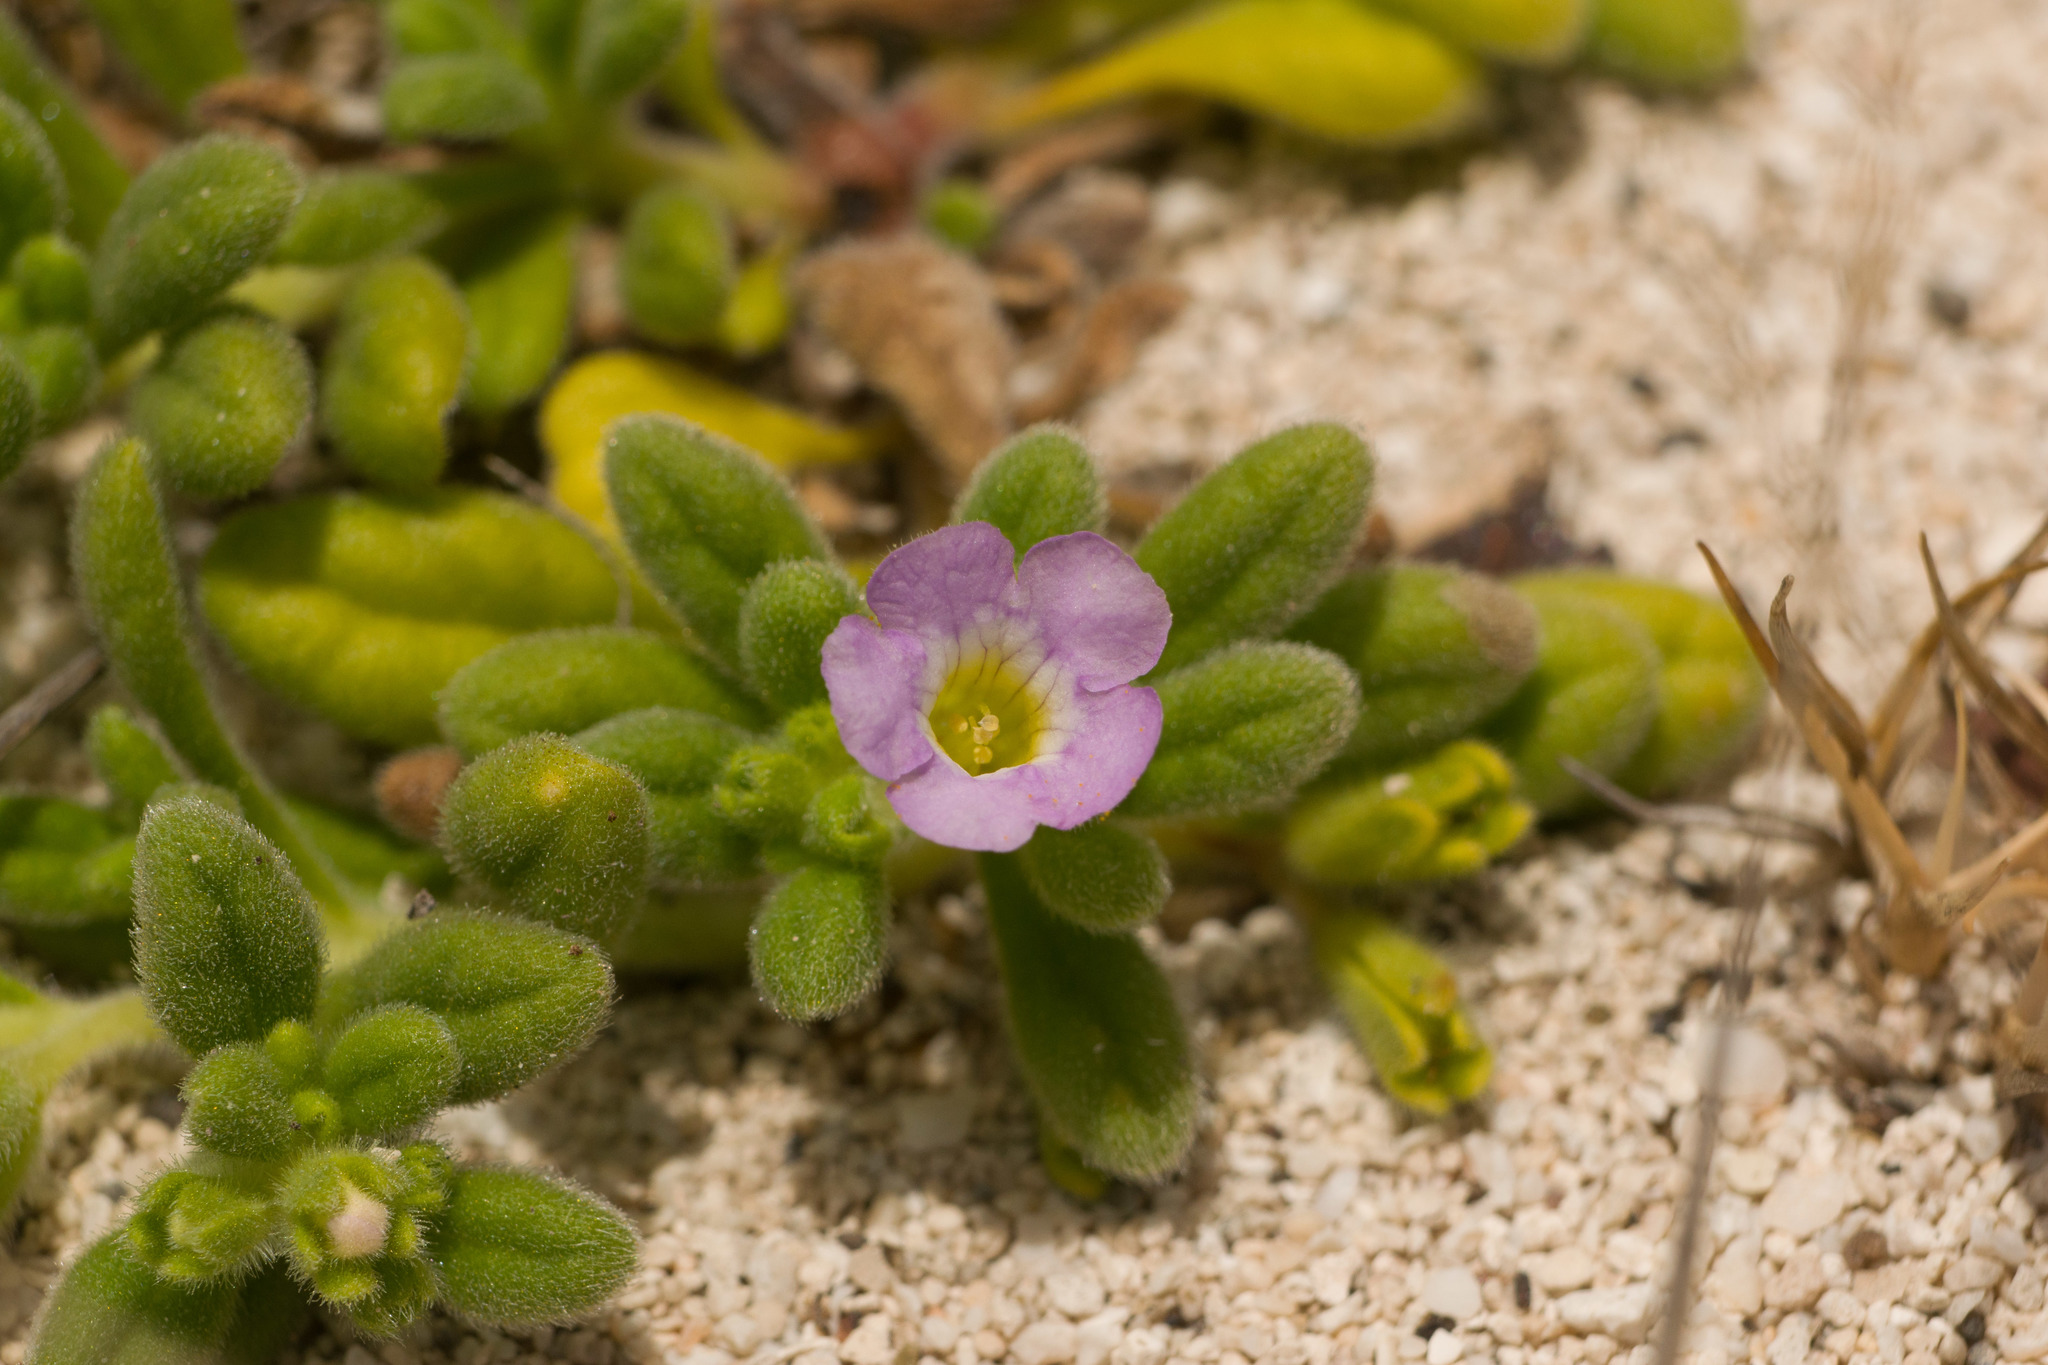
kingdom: Plantae
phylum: Tracheophyta
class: Magnoliopsida
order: Boraginales
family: Namaceae
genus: Nama
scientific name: Nama sandwicense
